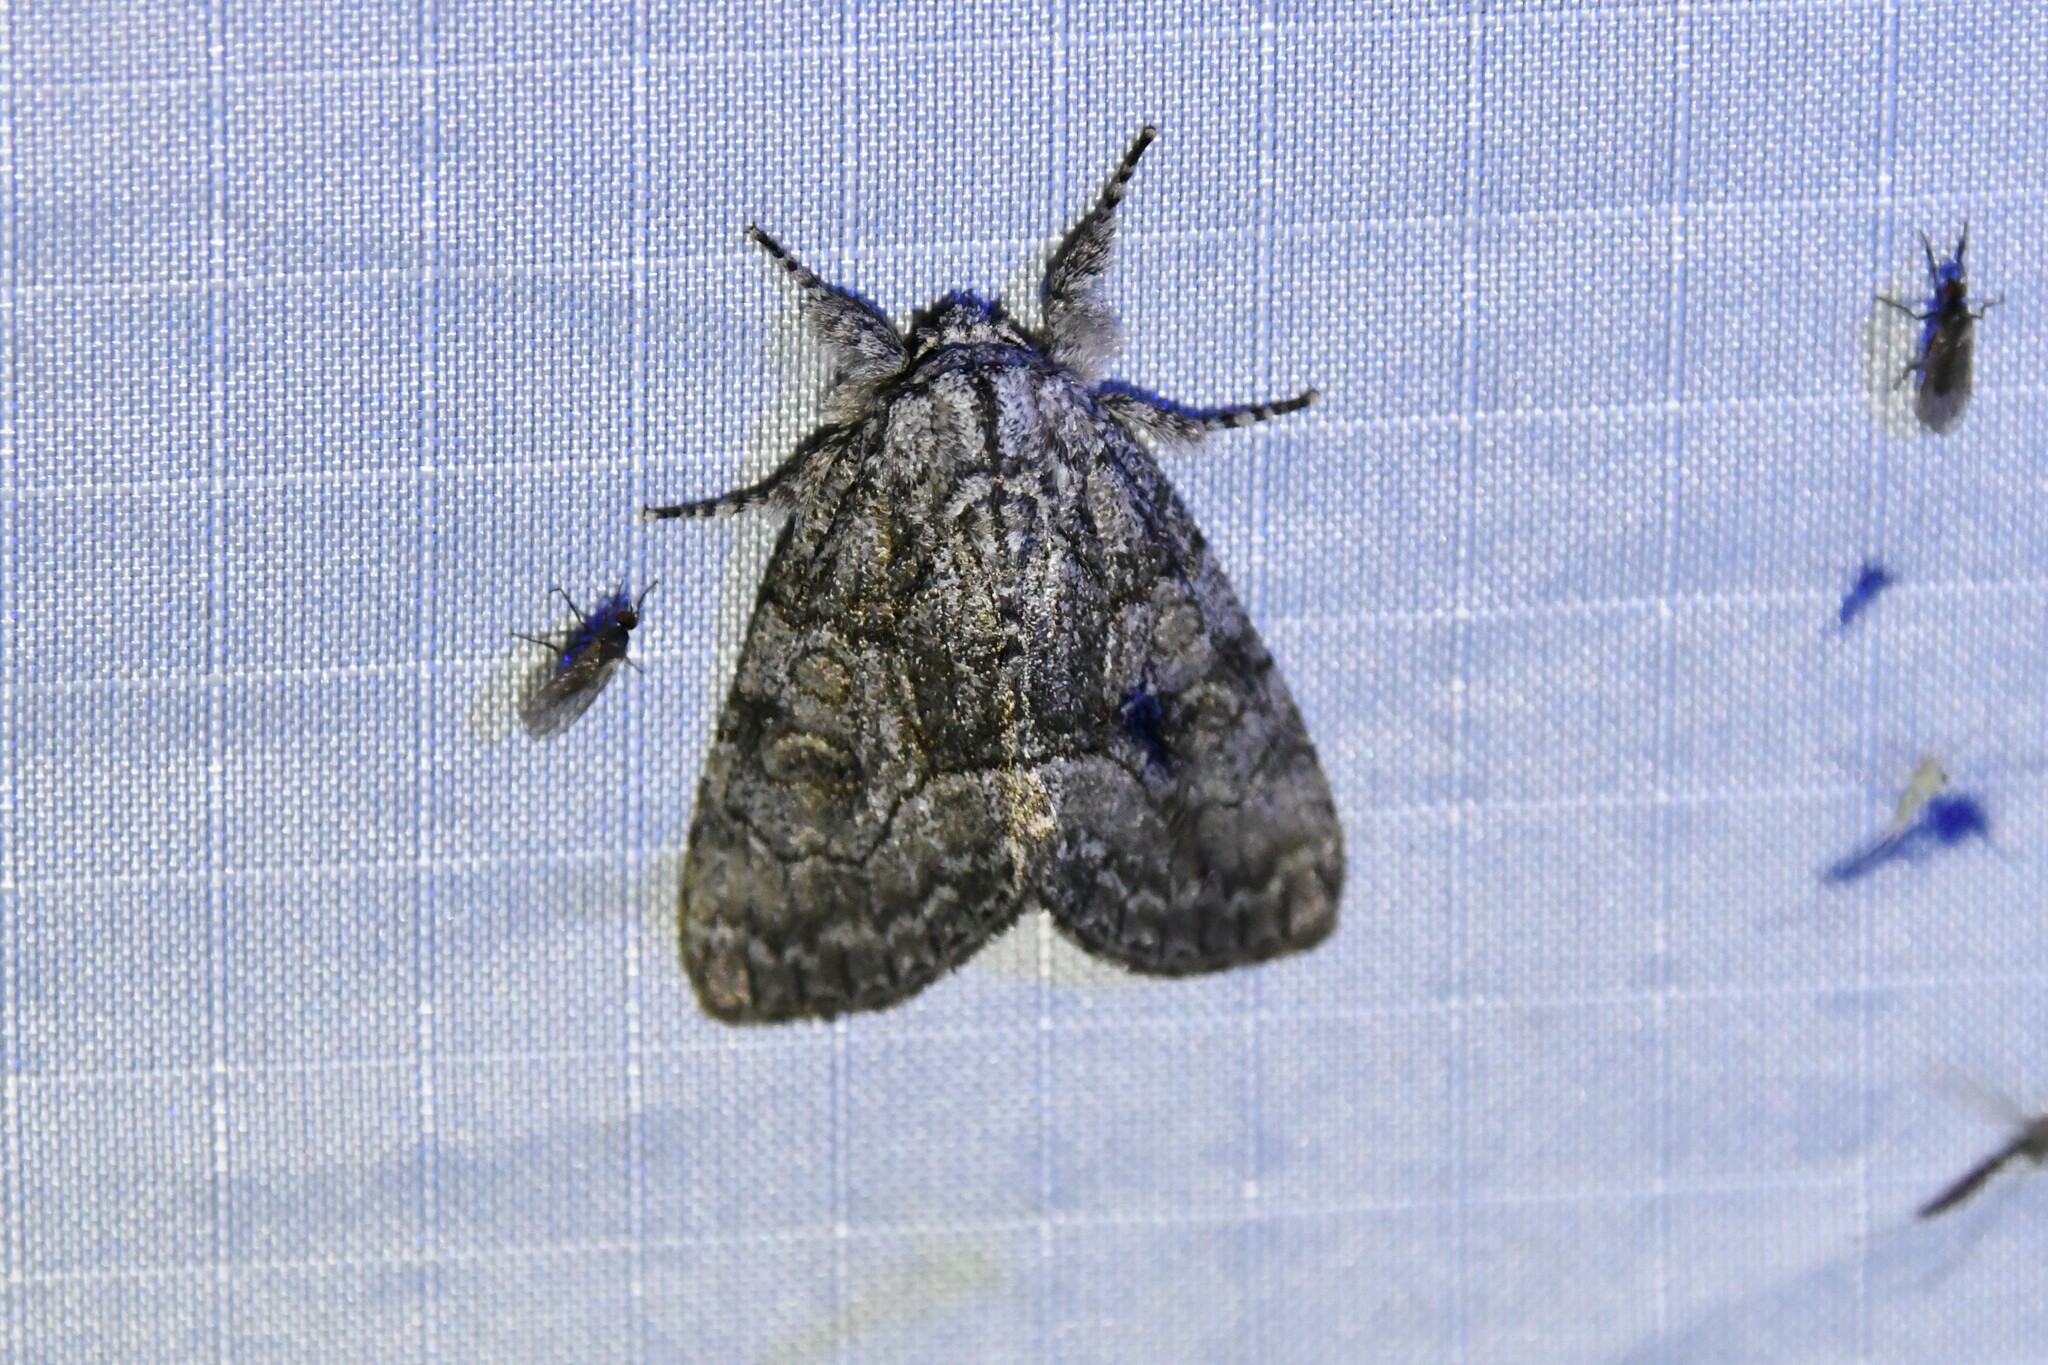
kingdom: Animalia
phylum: Arthropoda
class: Insecta
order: Lepidoptera
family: Noctuidae
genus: Raphia
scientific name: Raphia frater
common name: Brother
